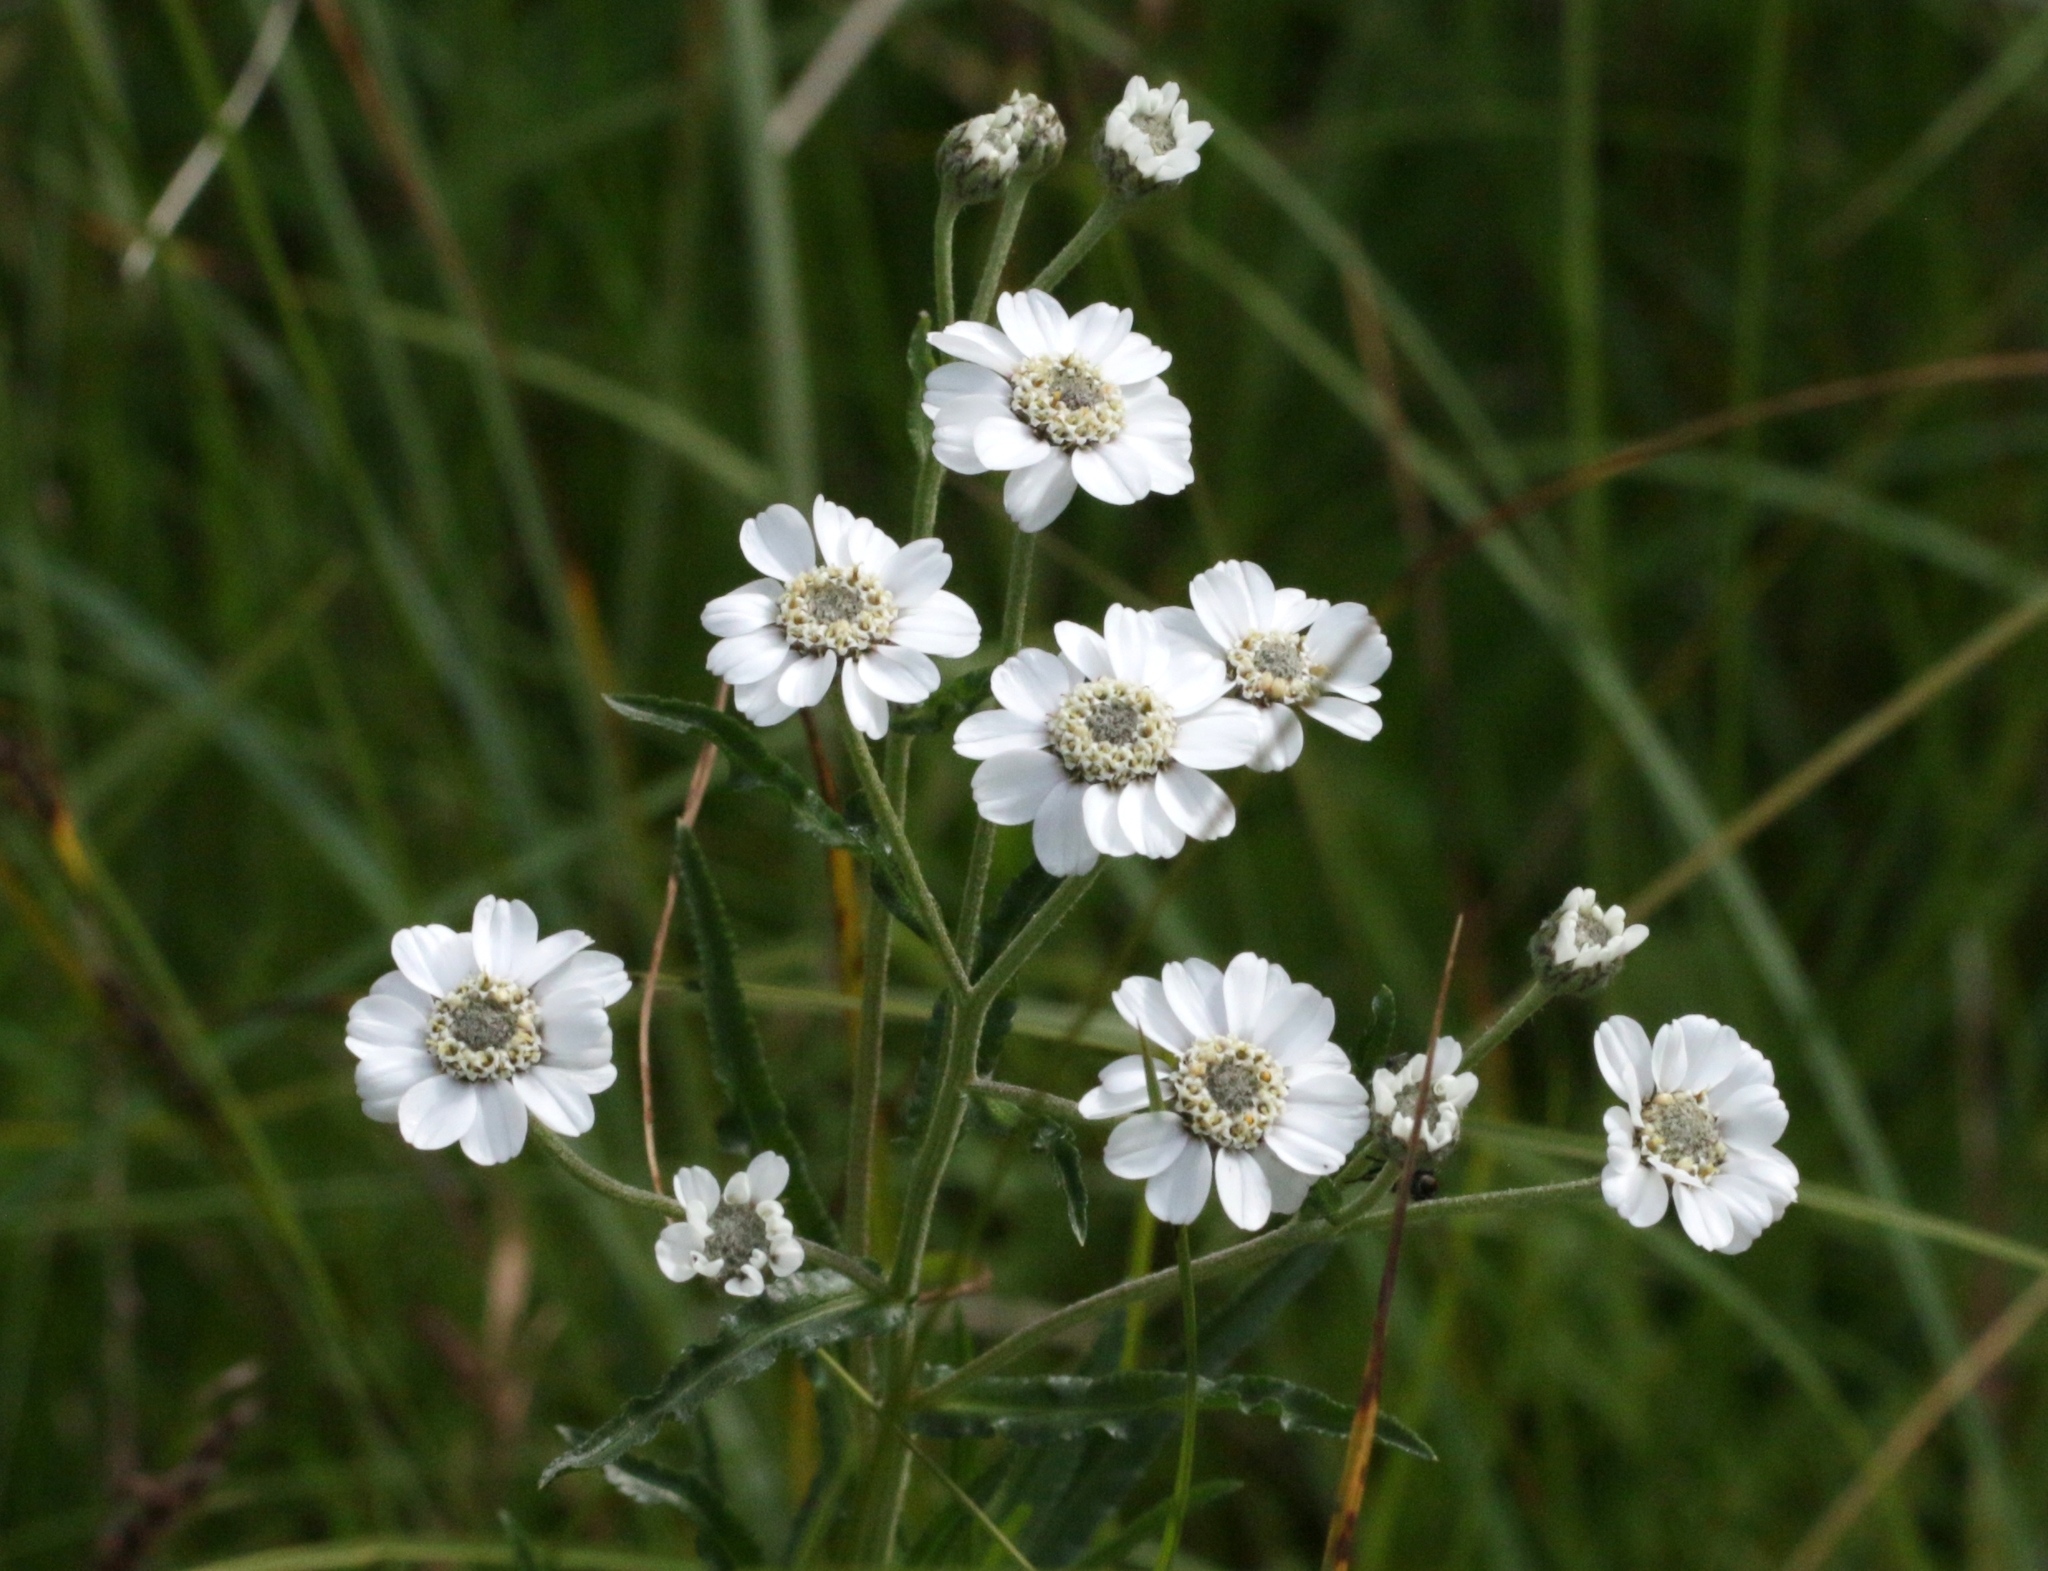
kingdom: Plantae
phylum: Tracheophyta
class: Magnoliopsida
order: Asterales
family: Asteraceae
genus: Achillea
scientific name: Achillea ptarmica
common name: Sneezeweed
